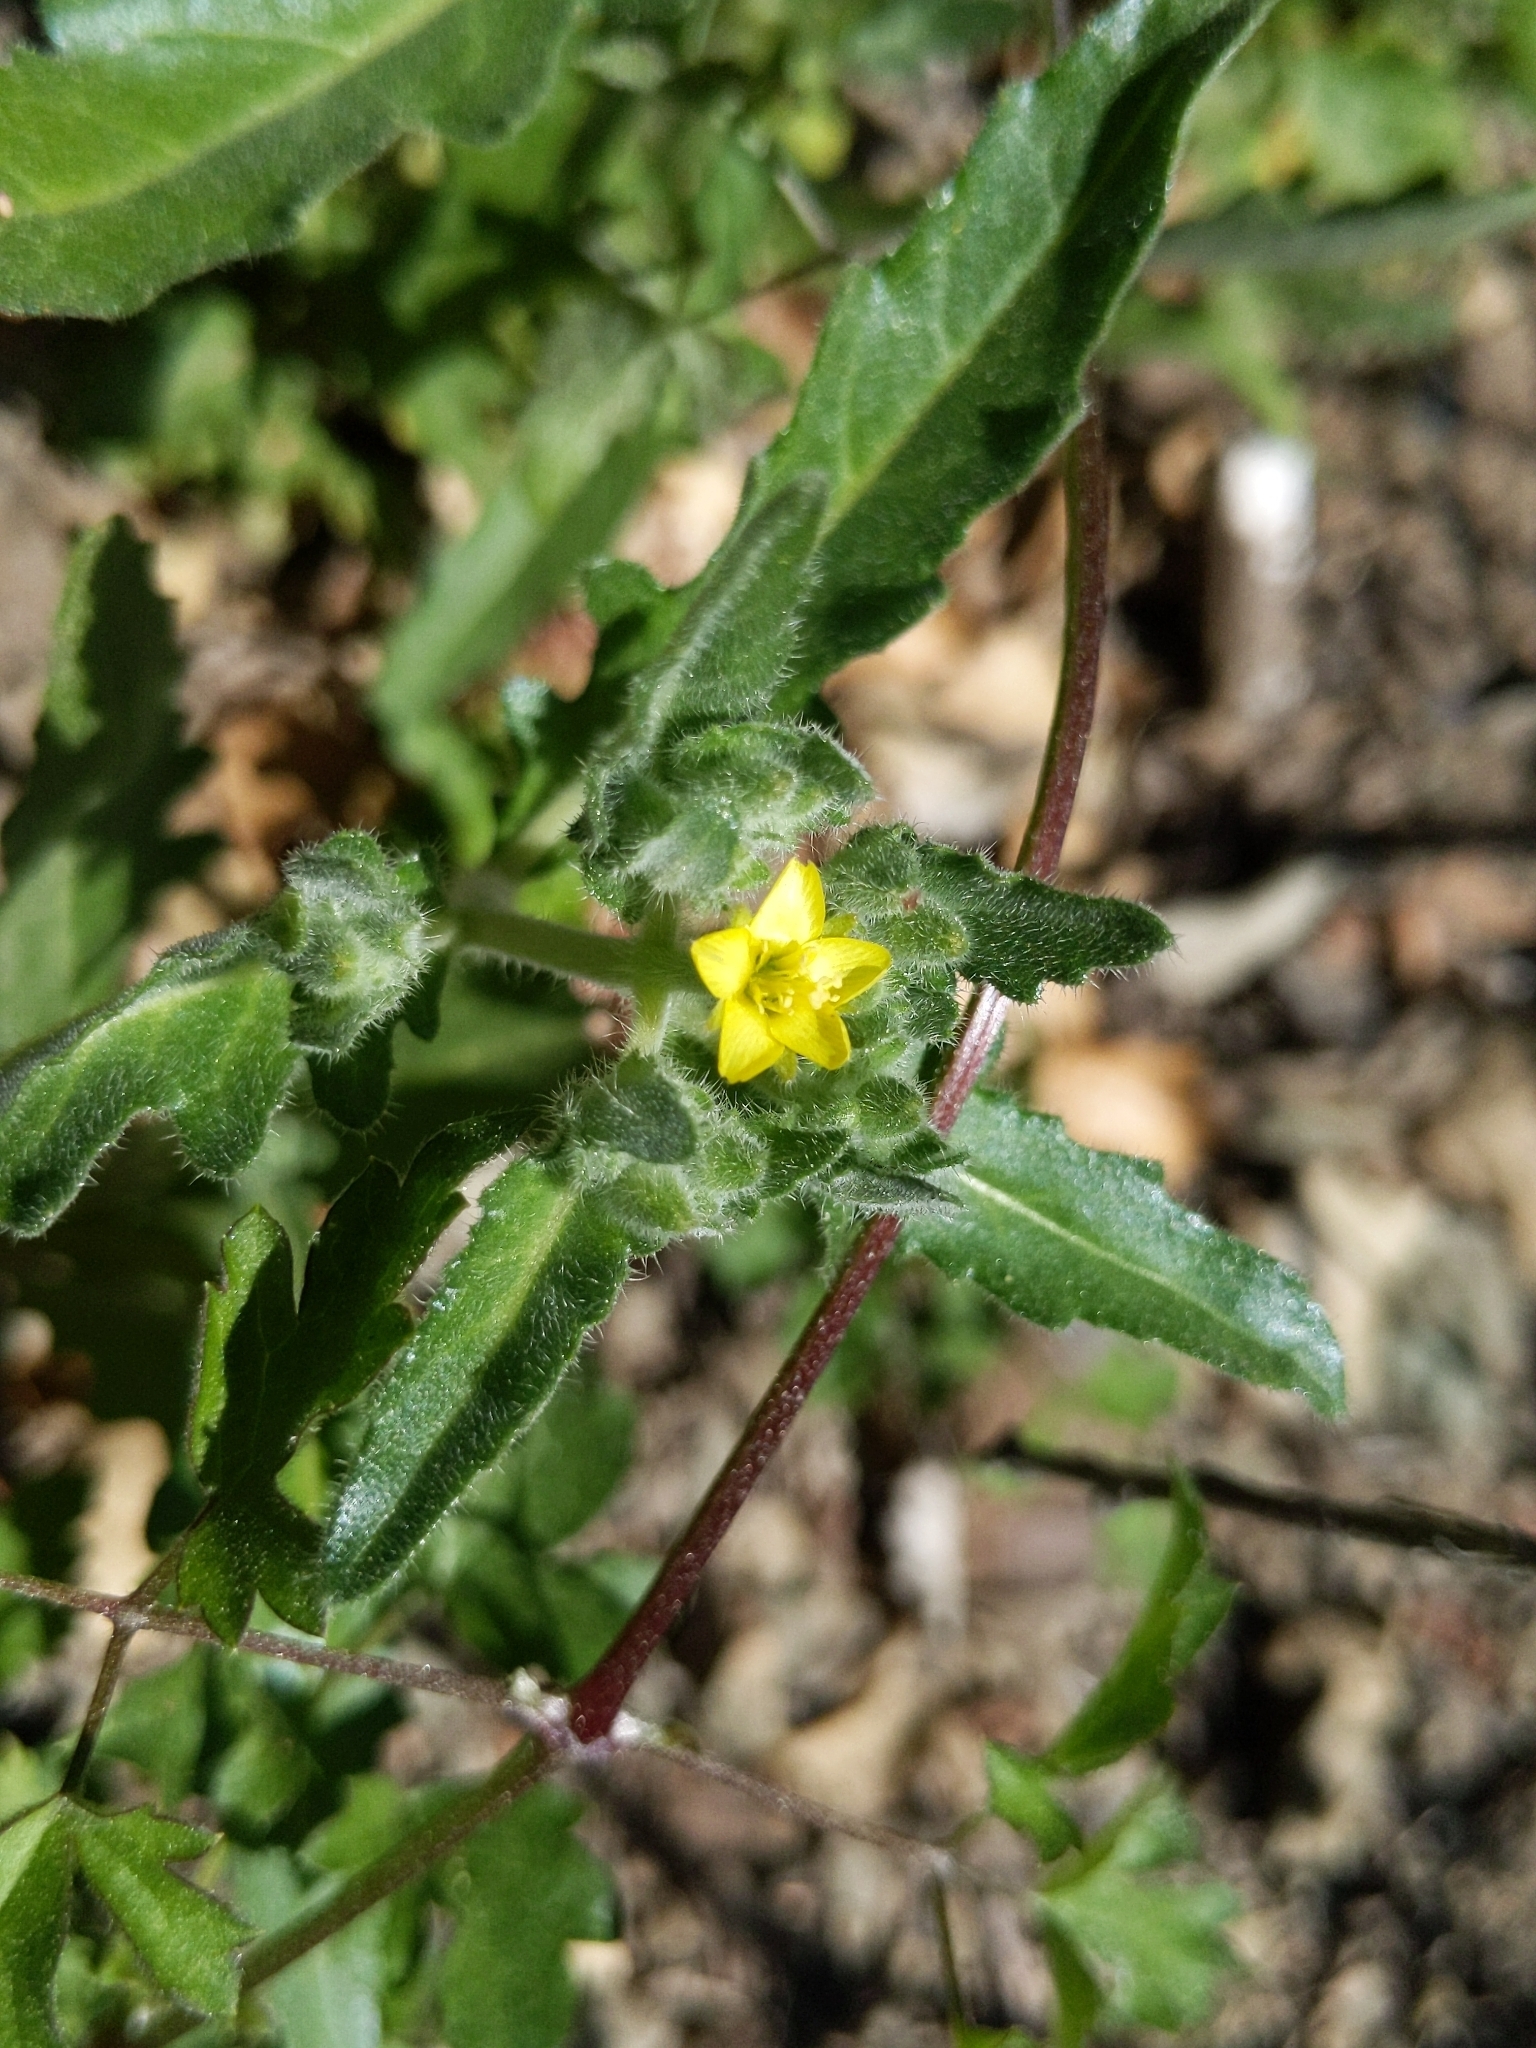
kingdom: Plantae
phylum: Tracheophyta
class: Magnoliopsida
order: Cornales
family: Loasaceae
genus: Mentzelia
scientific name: Mentzelia micrantha
